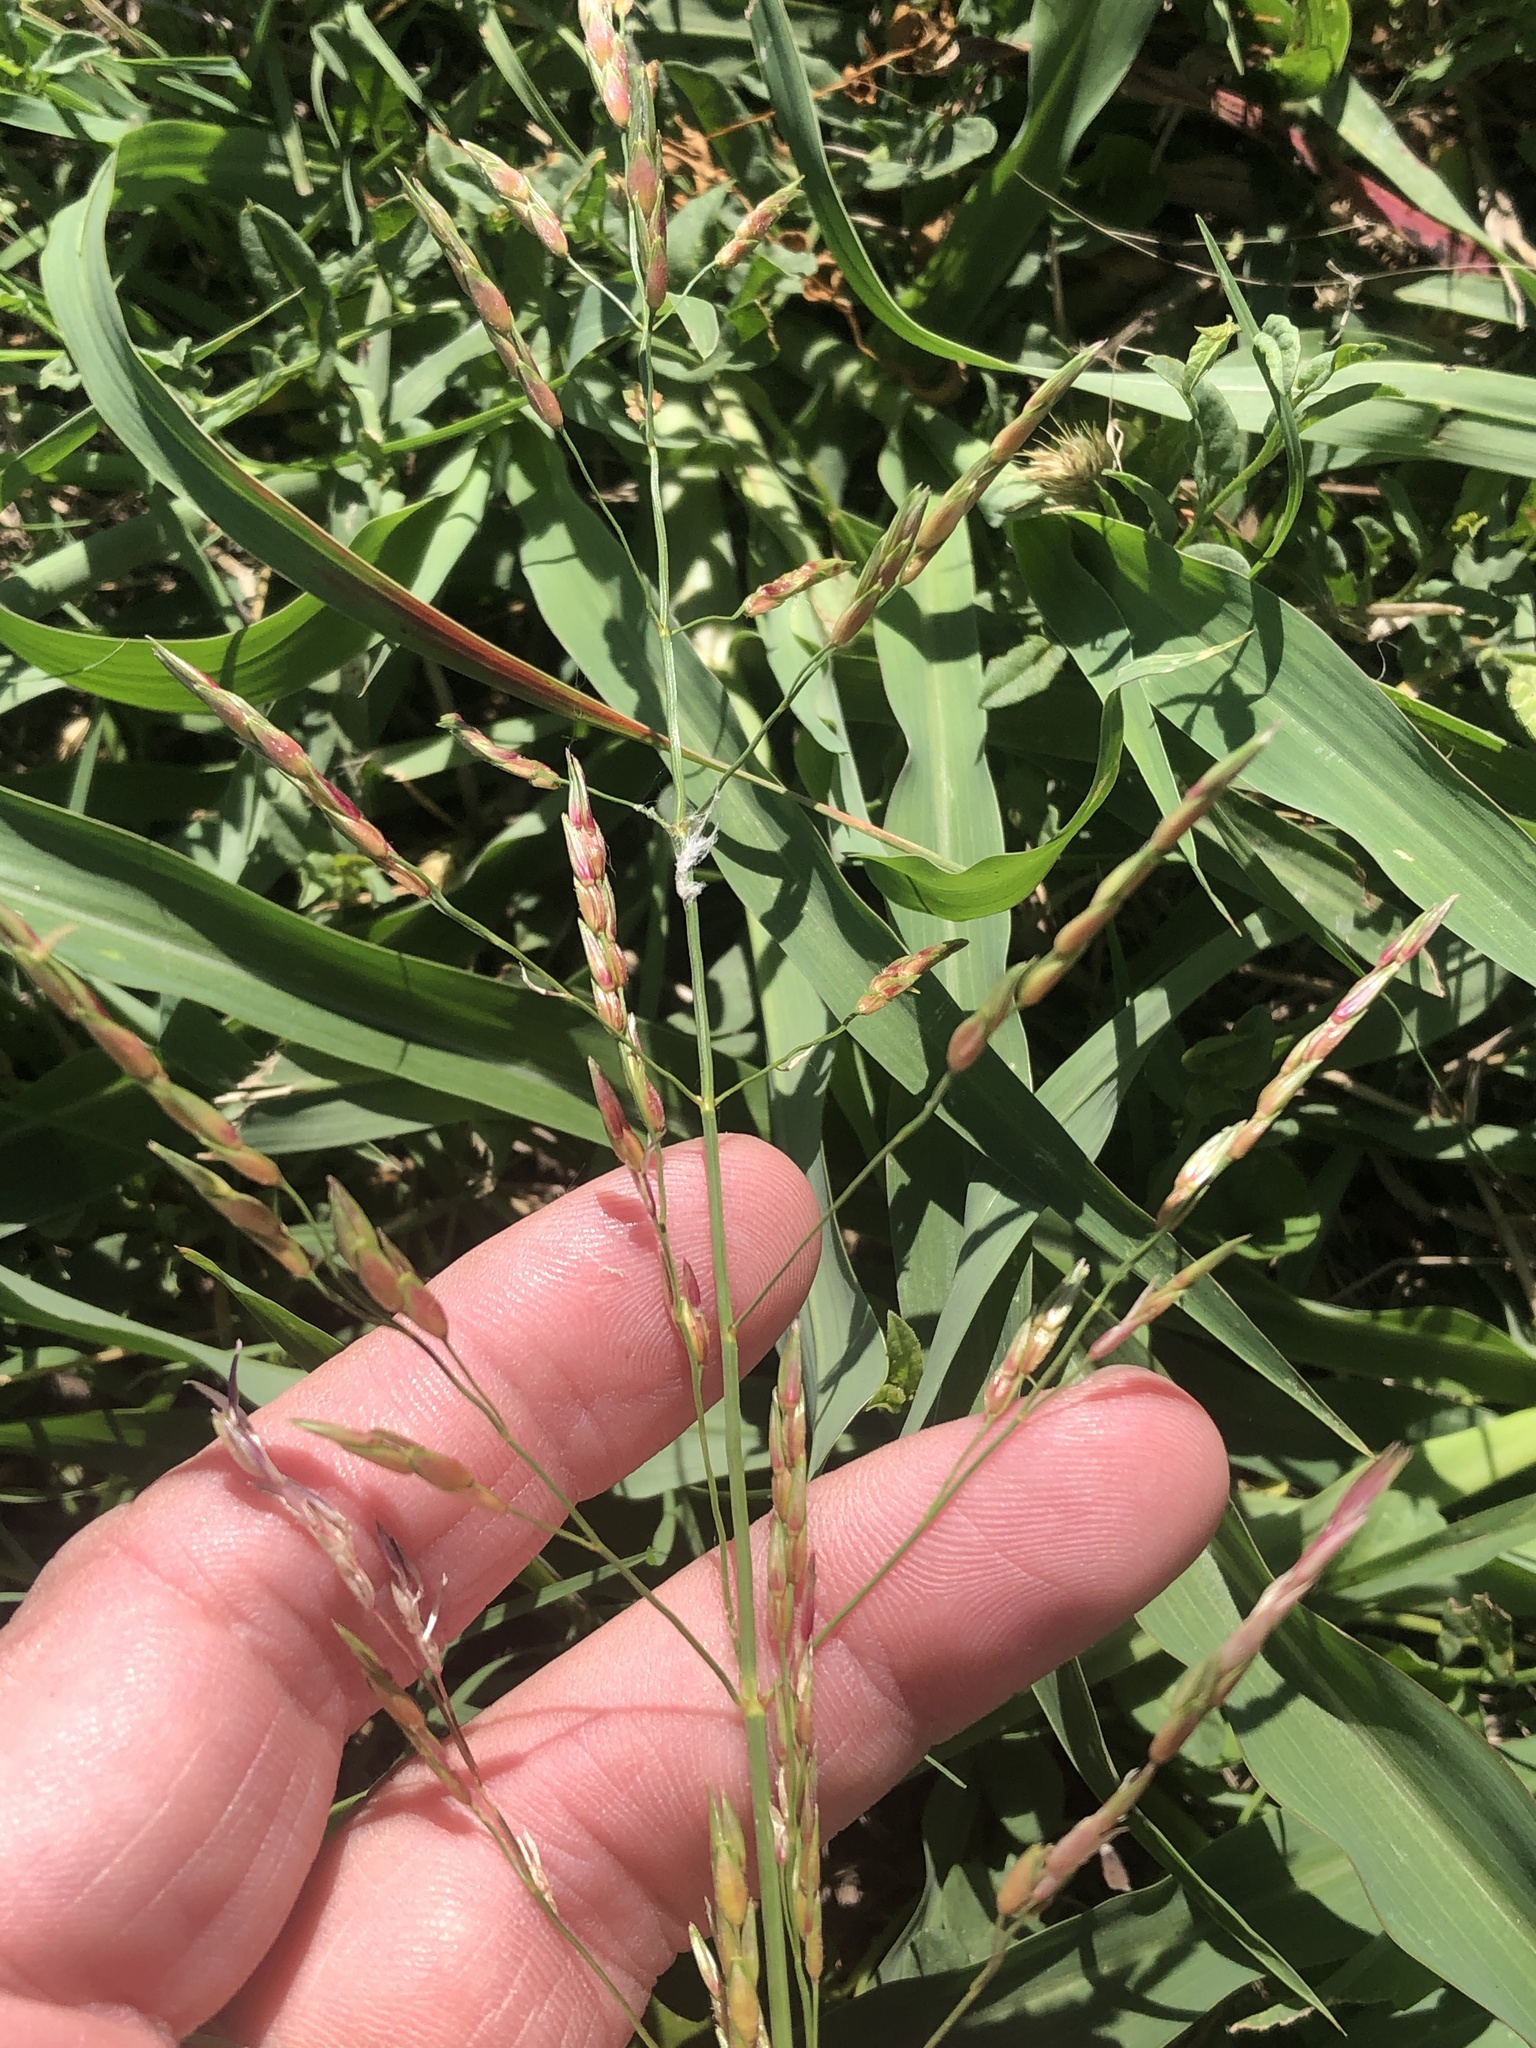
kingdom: Plantae
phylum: Tracheophyta
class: Liliopsida
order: Poales
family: Poaceae
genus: Sorghum
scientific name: Sorghum halepense
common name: Johnson-grass
